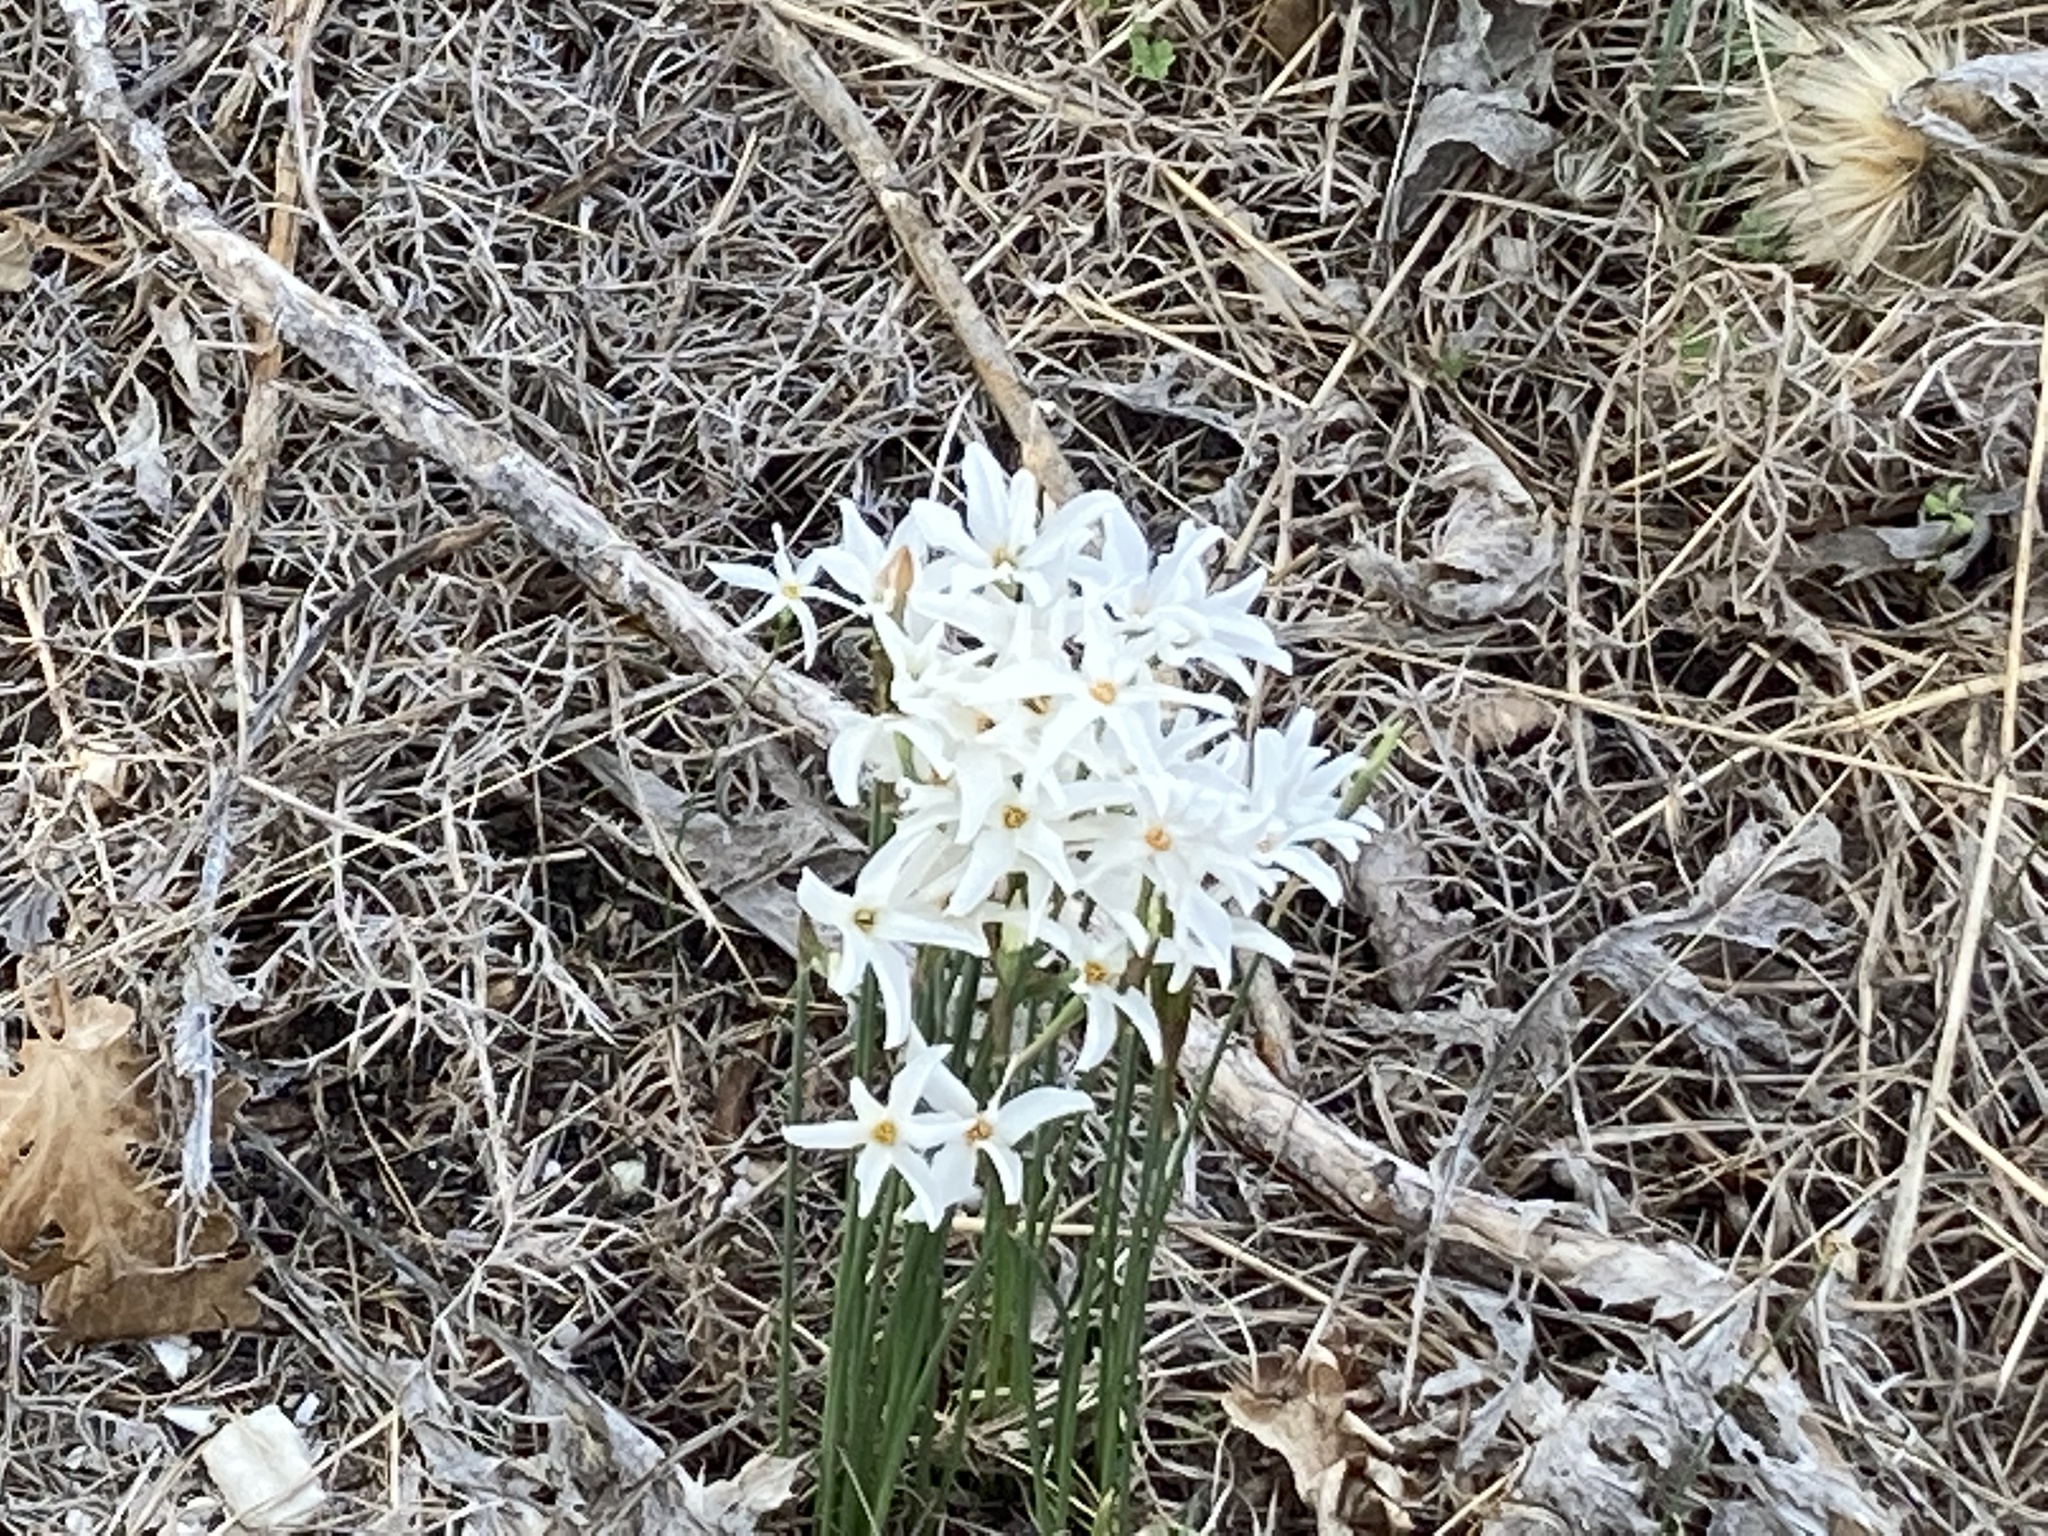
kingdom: Plantae
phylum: Tracheophyta
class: Liliopsida
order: Asparagales
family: Amaryllidaceae
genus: Narcissus
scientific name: Narcissus deficiens
